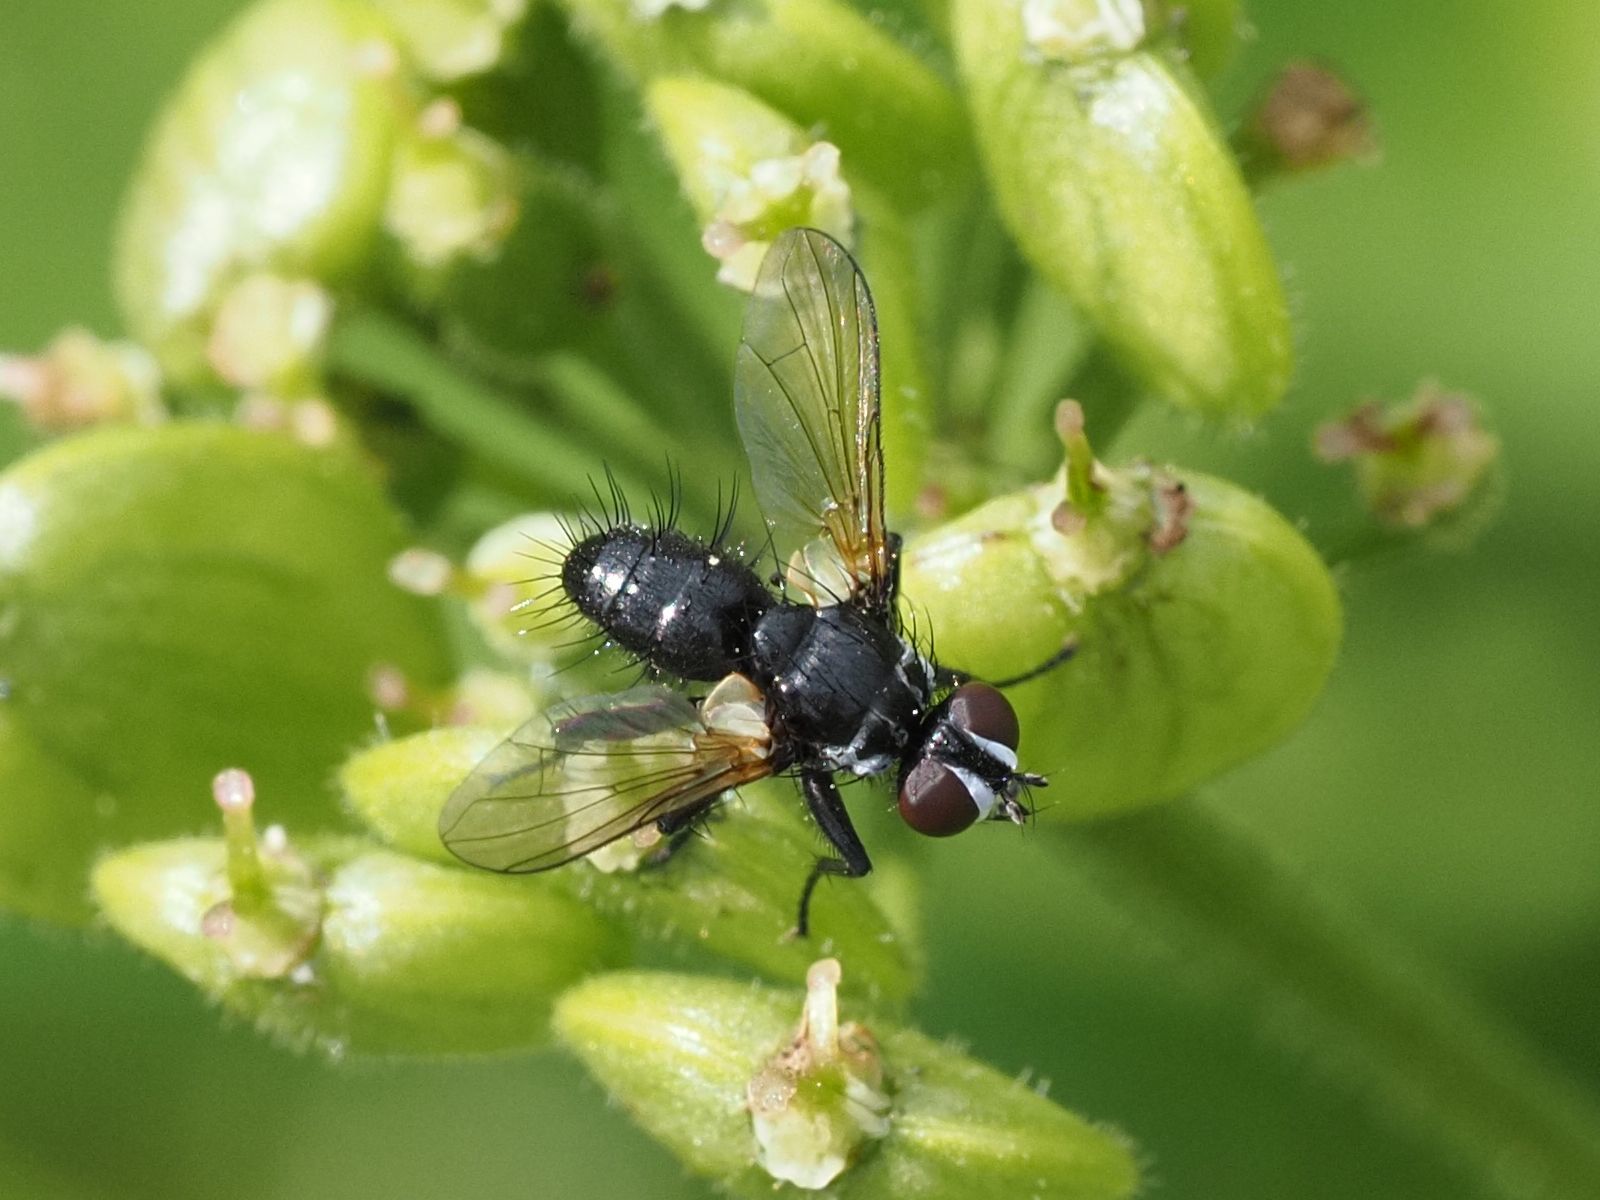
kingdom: Animalia
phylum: Arthropoda
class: Insecta
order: Diptera
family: Tachinidae
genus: Phania
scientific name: Phania funesta
